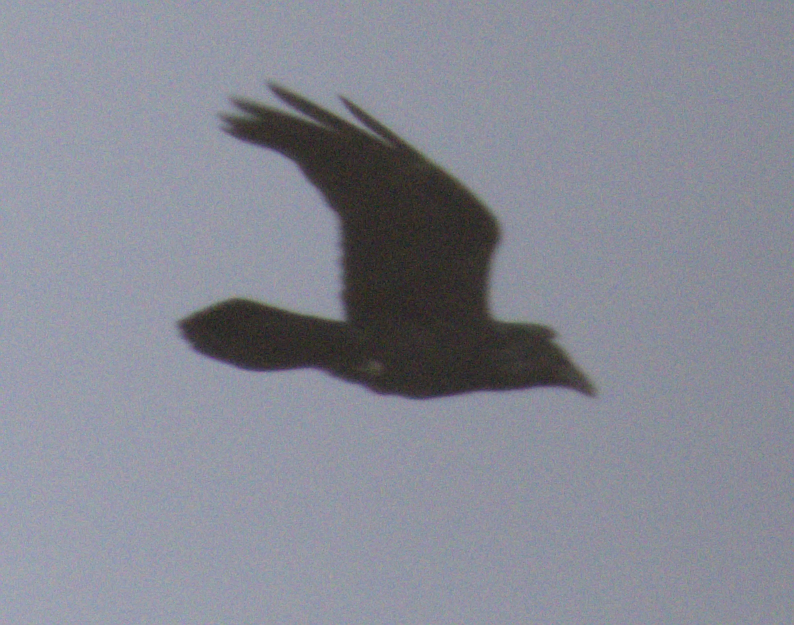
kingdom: Animalia
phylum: Chordata
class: Aves
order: Passeriformes
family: Corvidae
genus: Corvus
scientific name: Corvus corax
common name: Common raven
